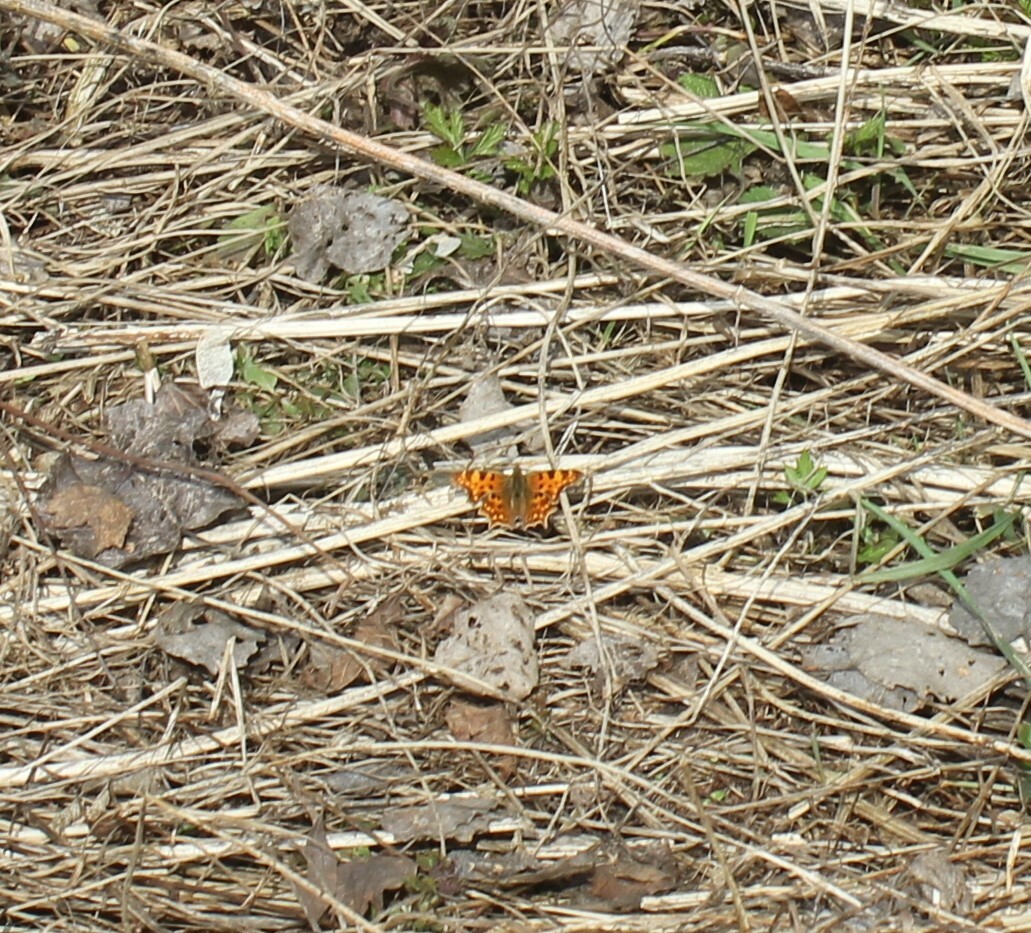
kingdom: Animalia
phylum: Arthropoda
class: Insecta
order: Lepidoptera
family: Nymphalidae
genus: Polygonia
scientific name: Polygonia c-album
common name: Comma
